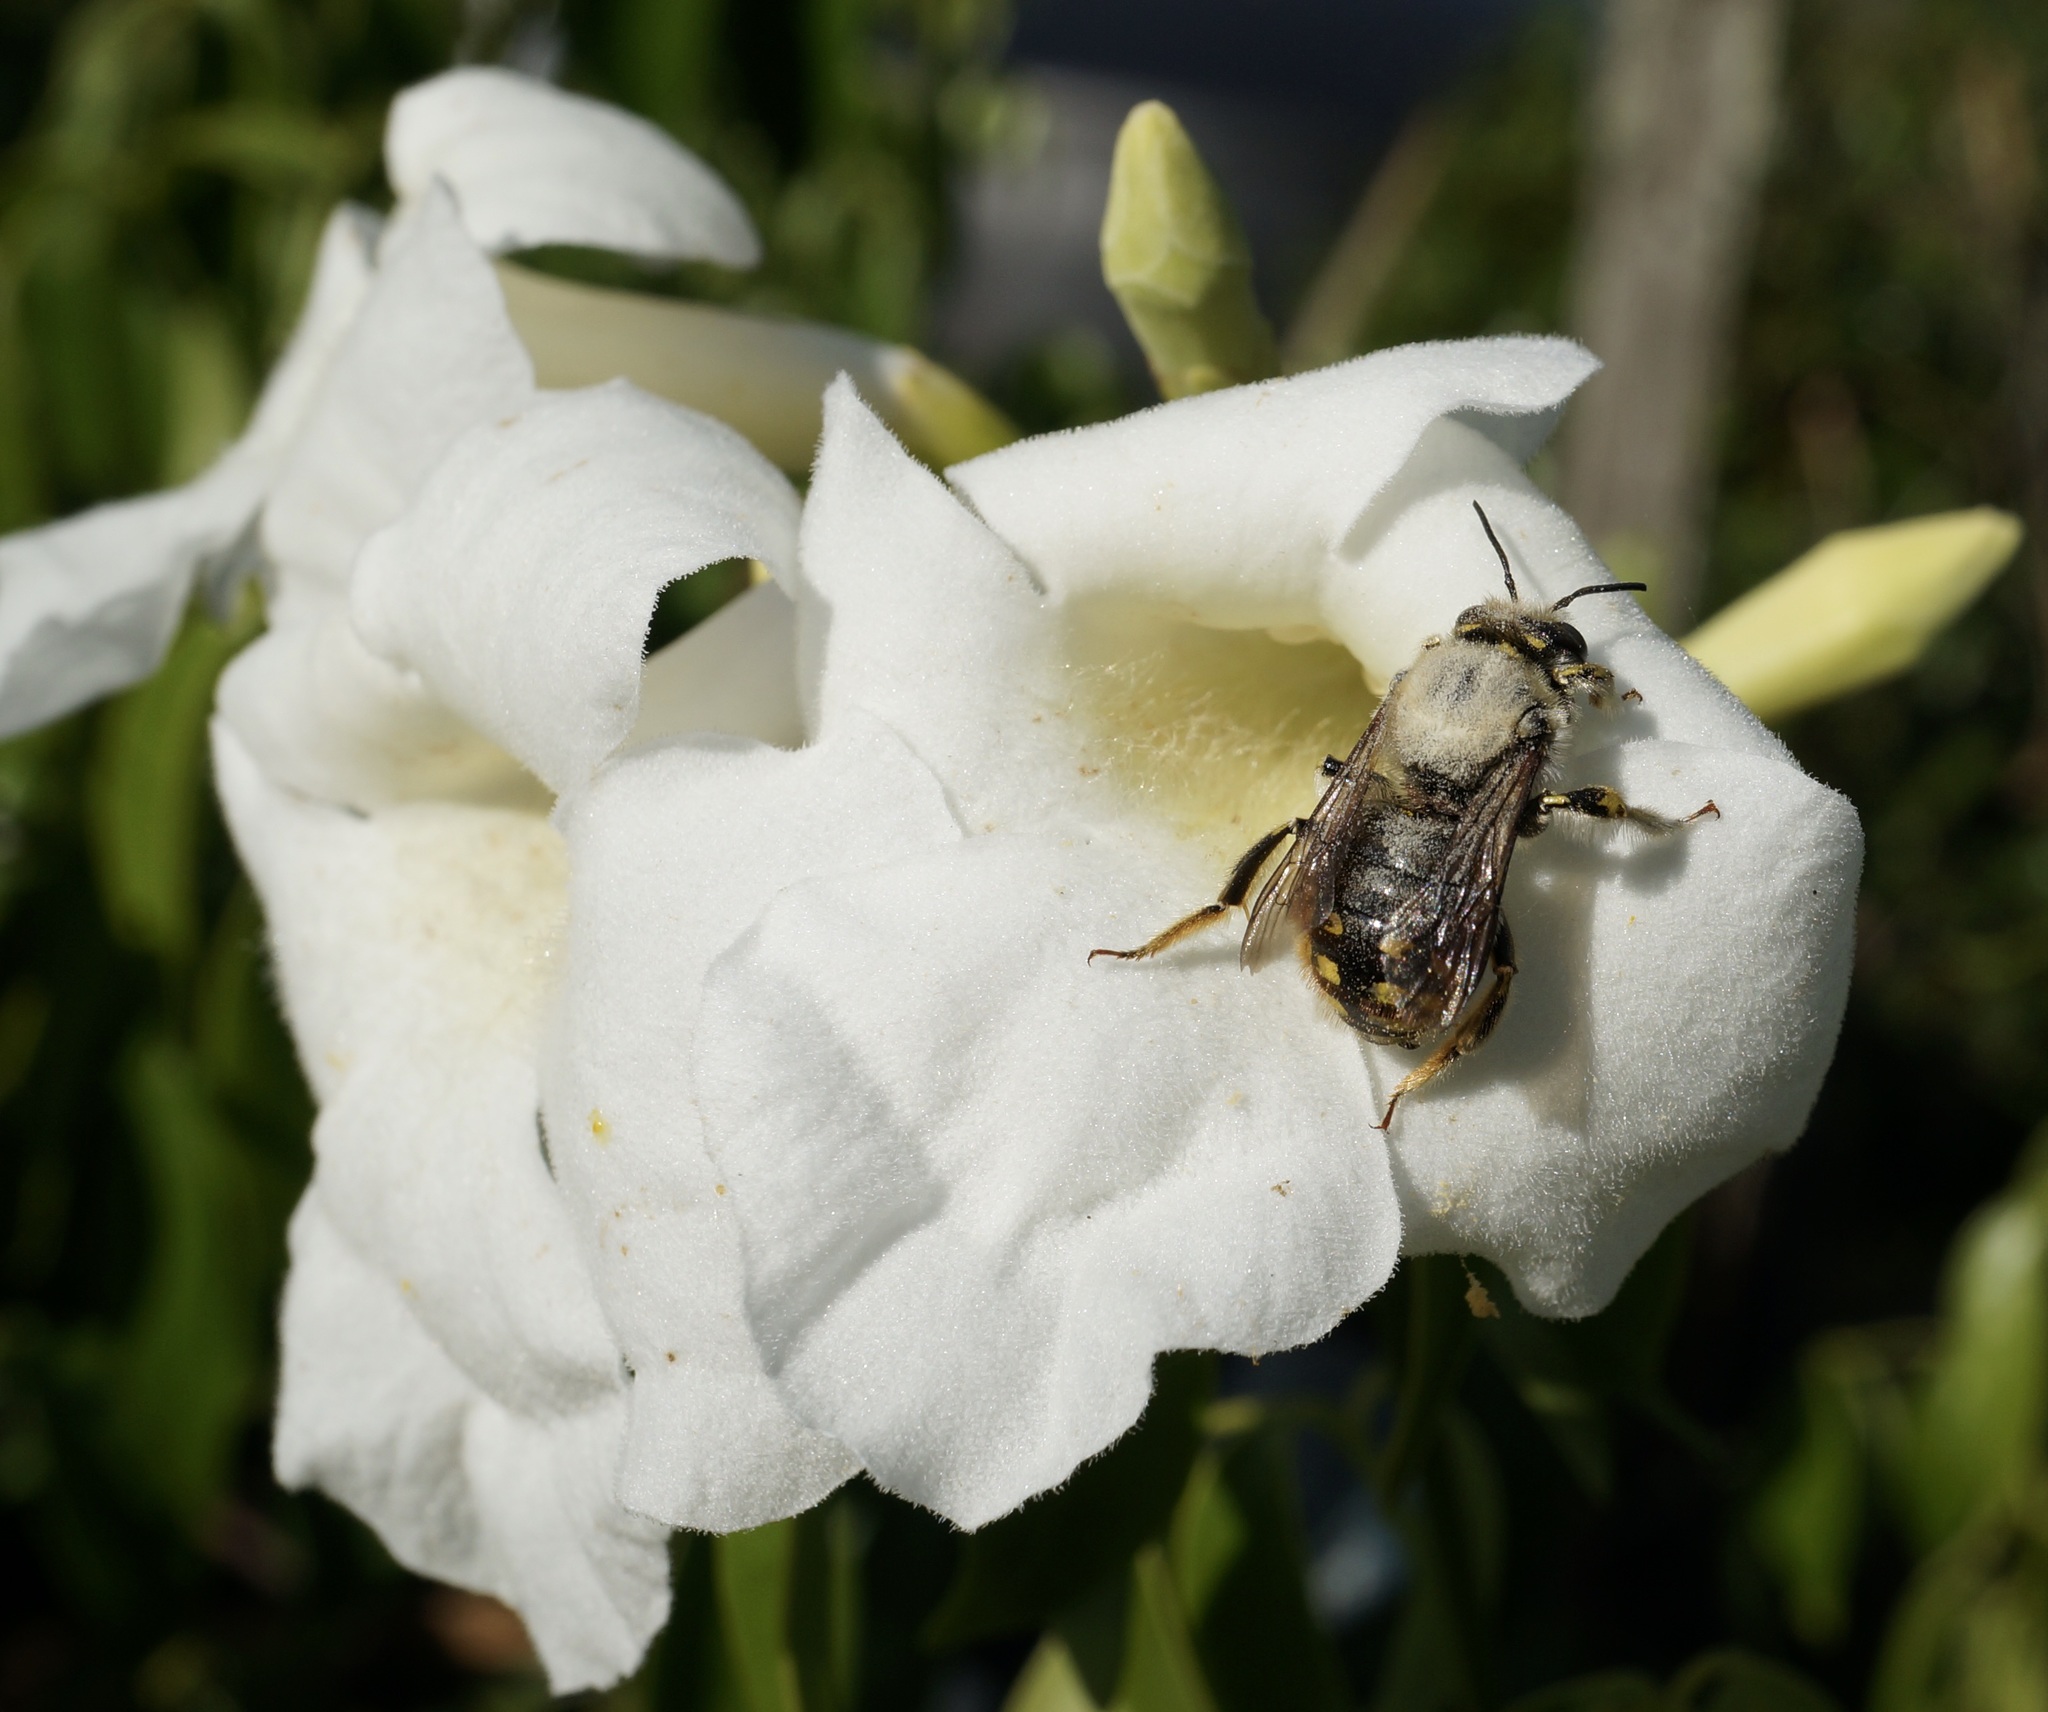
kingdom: Animalia
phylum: Arthropoda
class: Insecta
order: Hymenoptera
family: Megachilidae
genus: Anthidium
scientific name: Anthidium manicatum
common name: Wool carder bee
